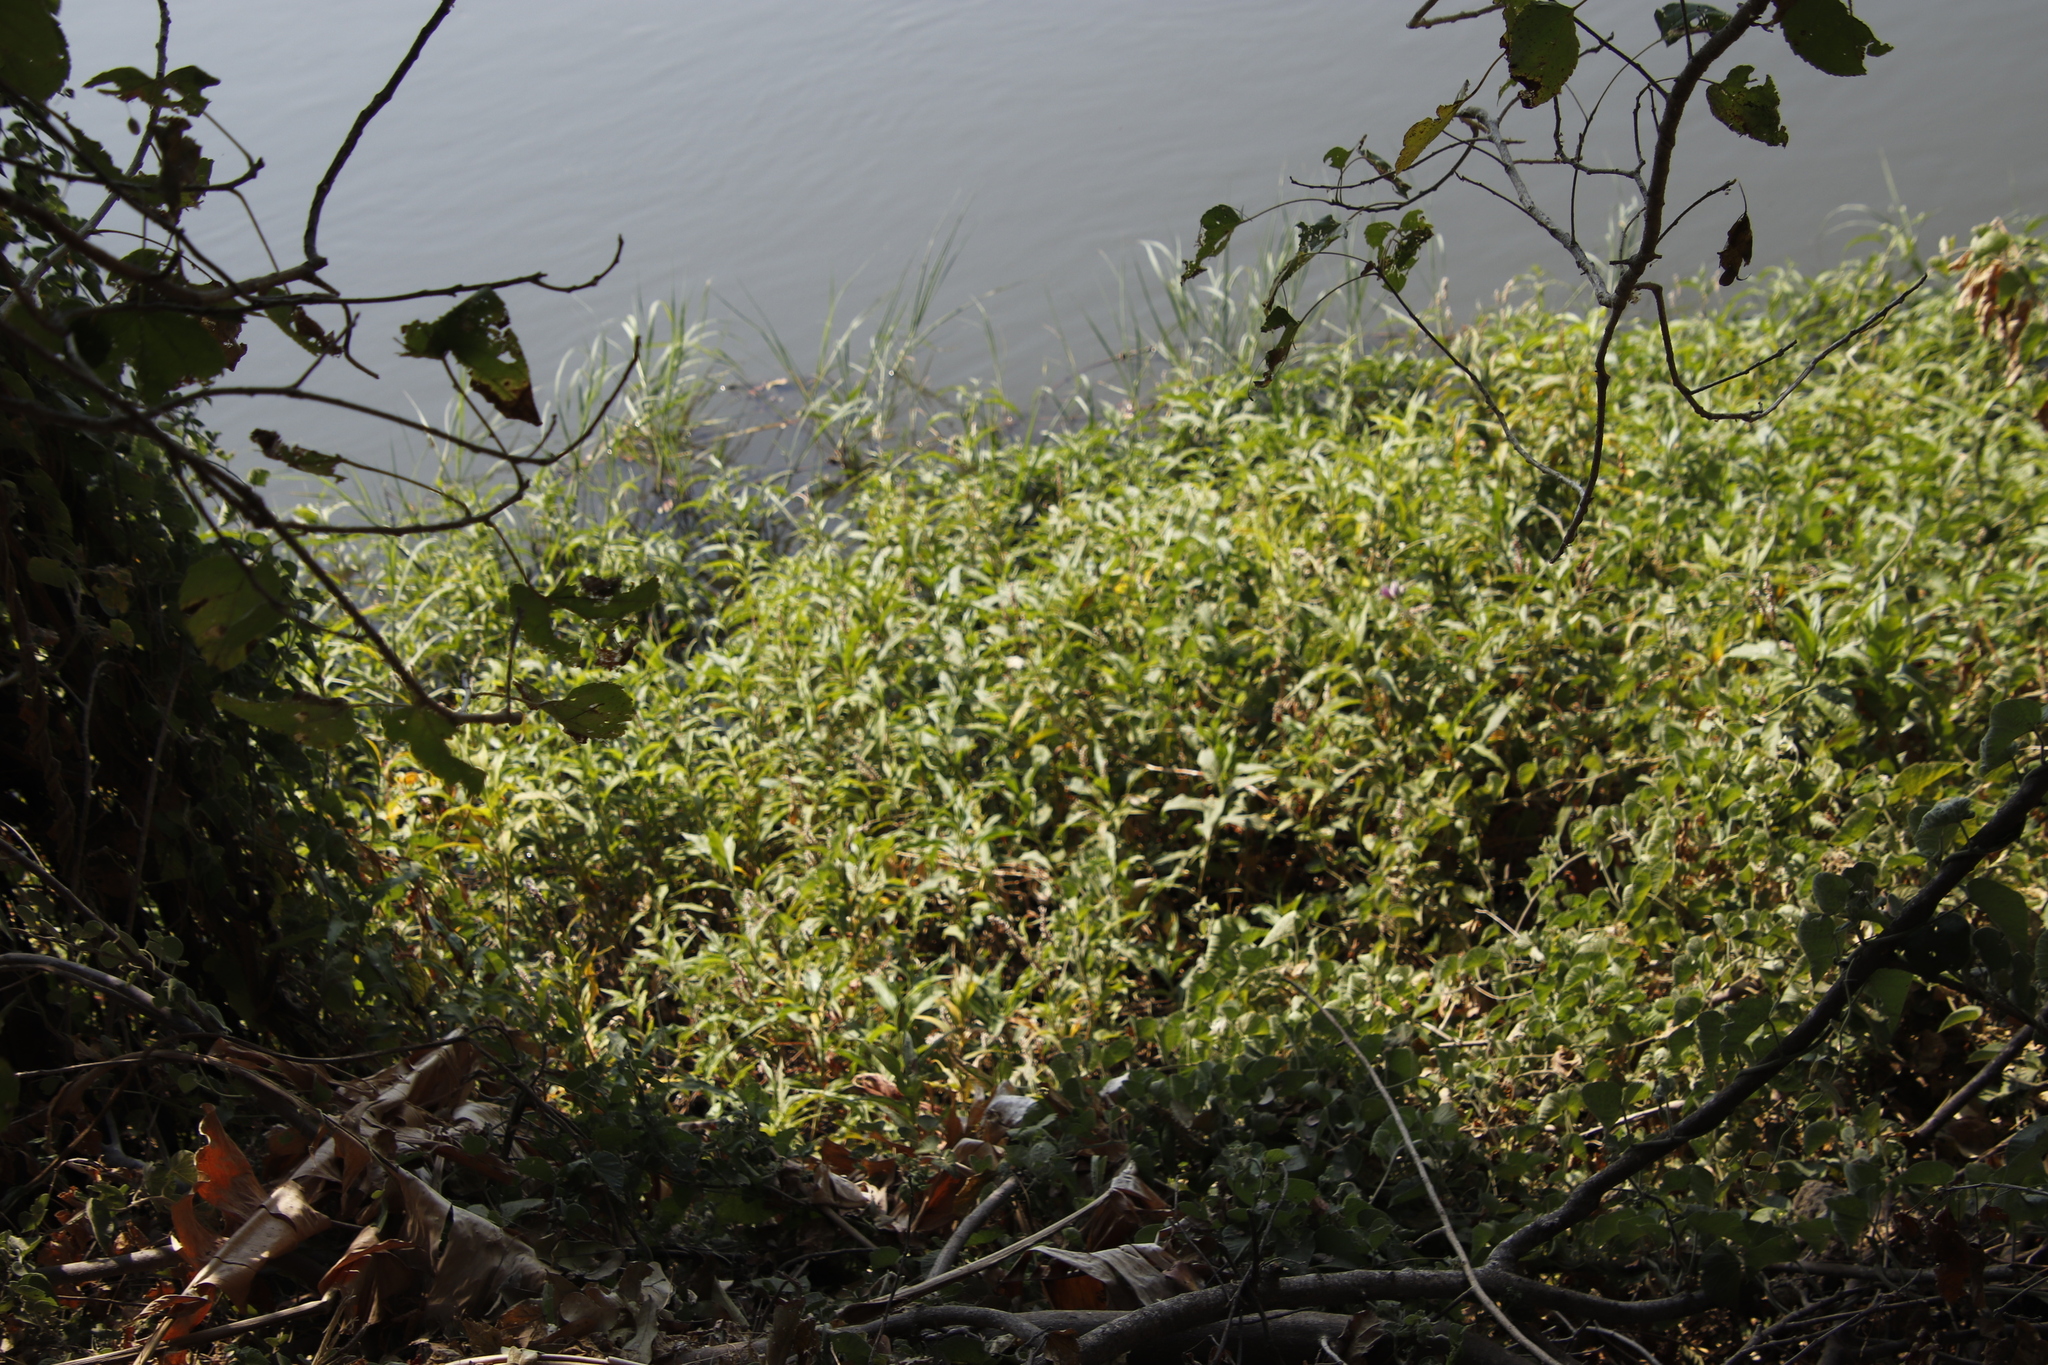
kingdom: Plantae
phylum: Tracheophyta
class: Magnoliopsida
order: Caryophyllales
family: Polygonaceae
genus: Persicaria
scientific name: Persicaria madagascariensis
